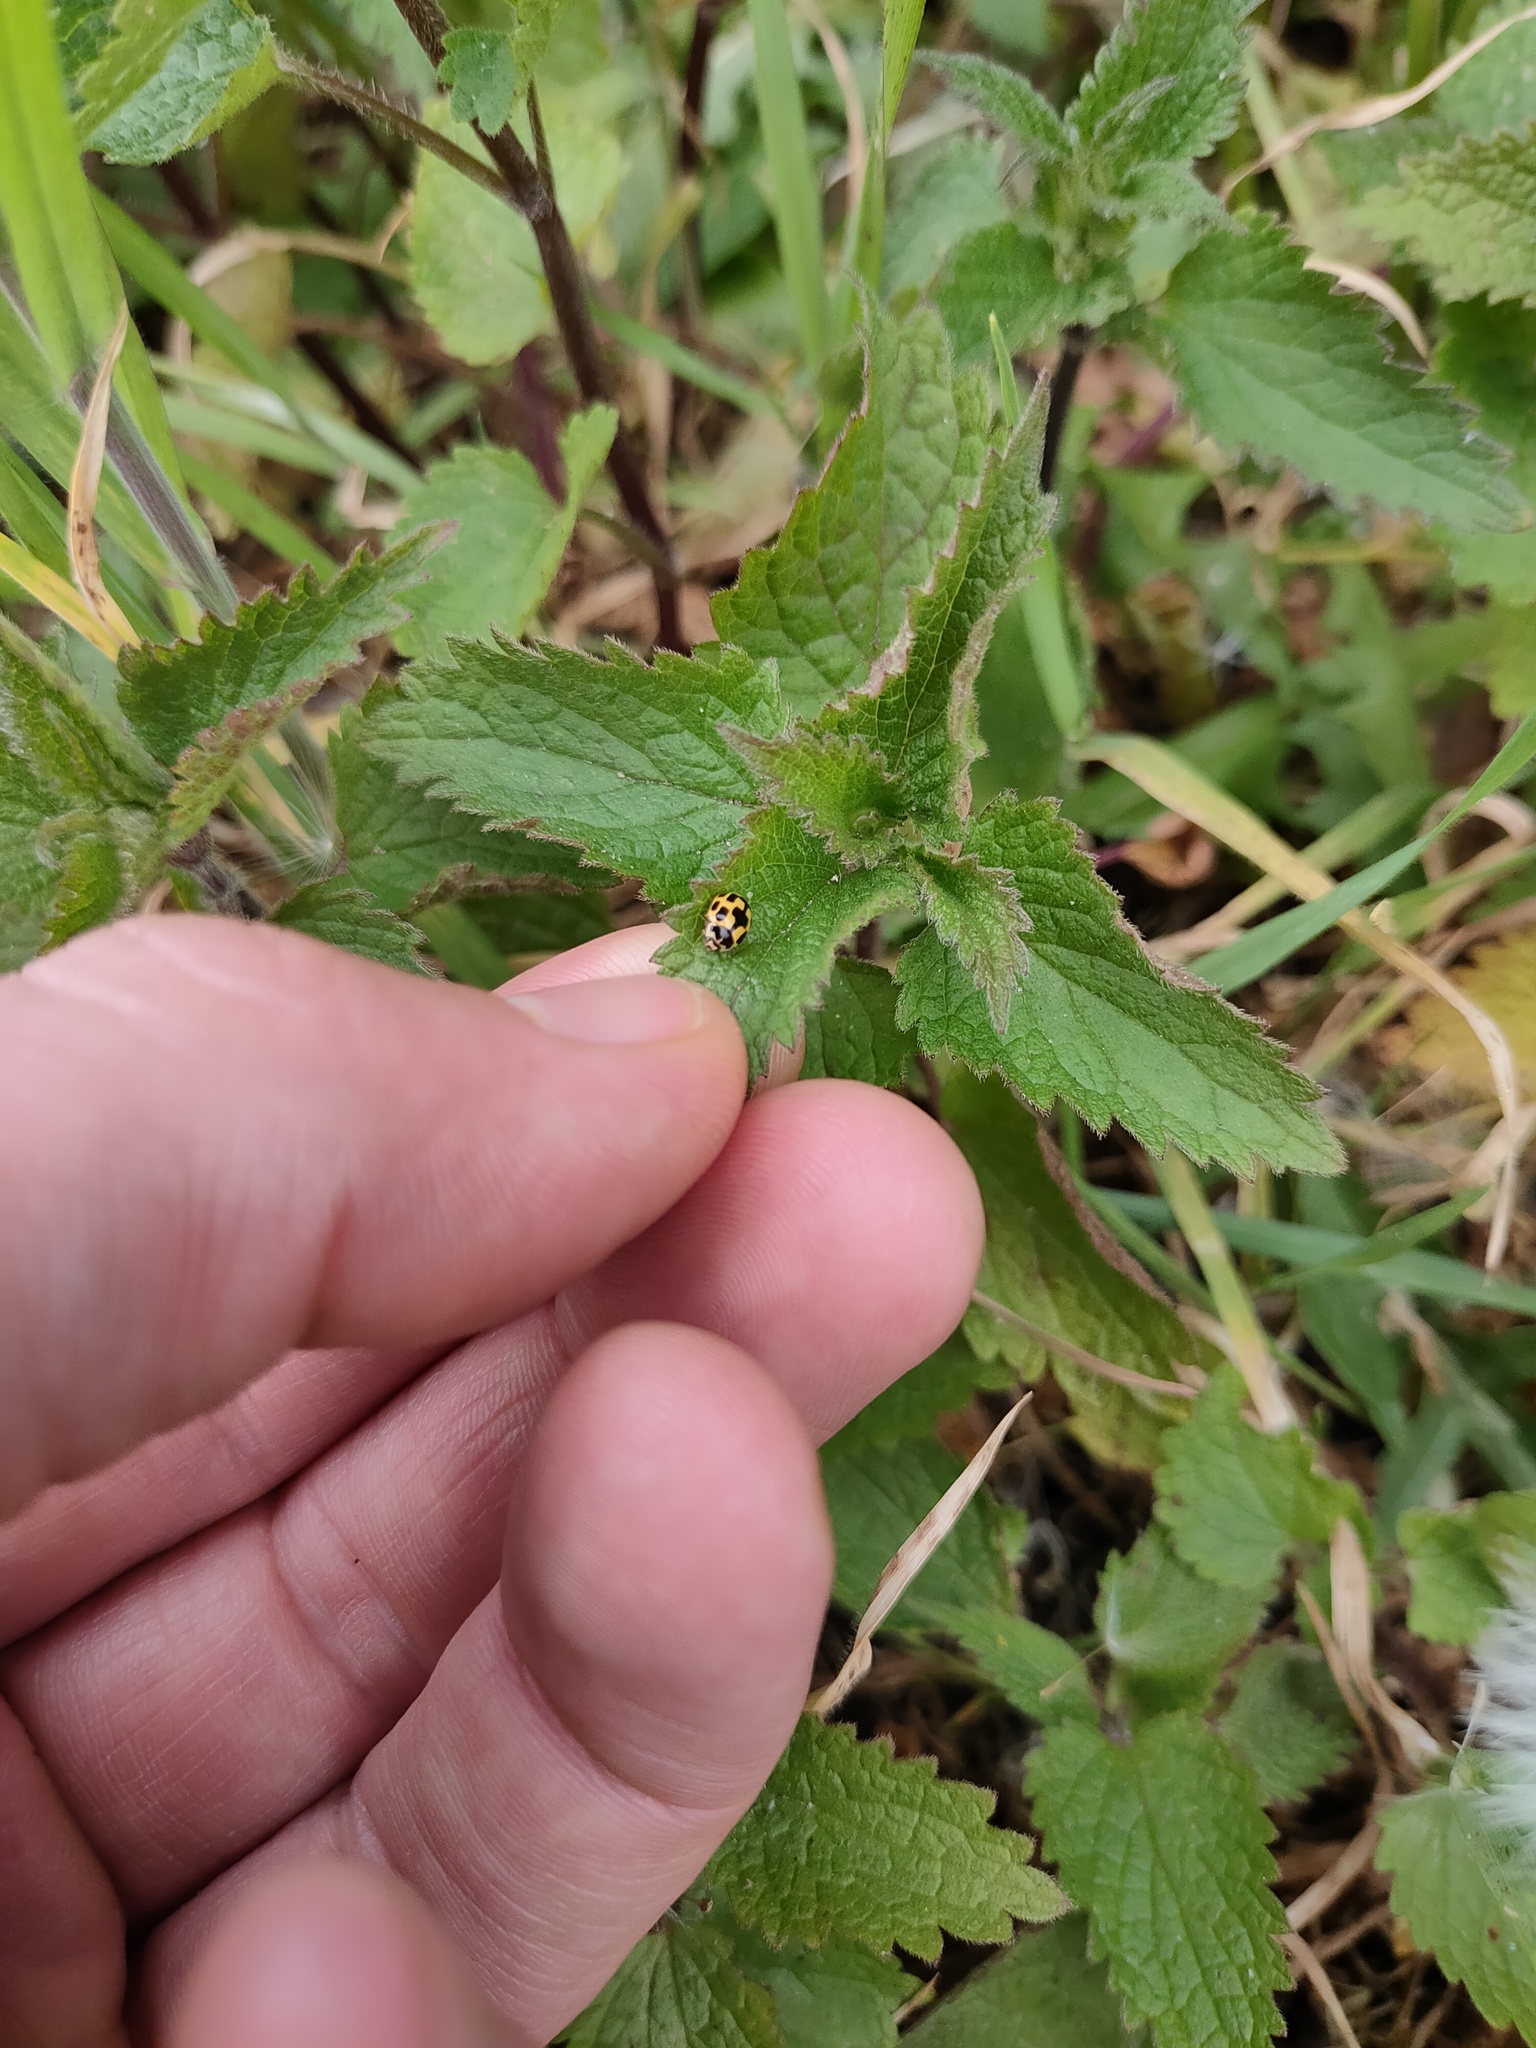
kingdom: Animalia
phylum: Arthropoda
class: Insecta
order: Coleoptera
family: Coccinellidae
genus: Propylaea
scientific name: Propylaea quatuordecimpunctata
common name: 14-spotted ladybird beetle
